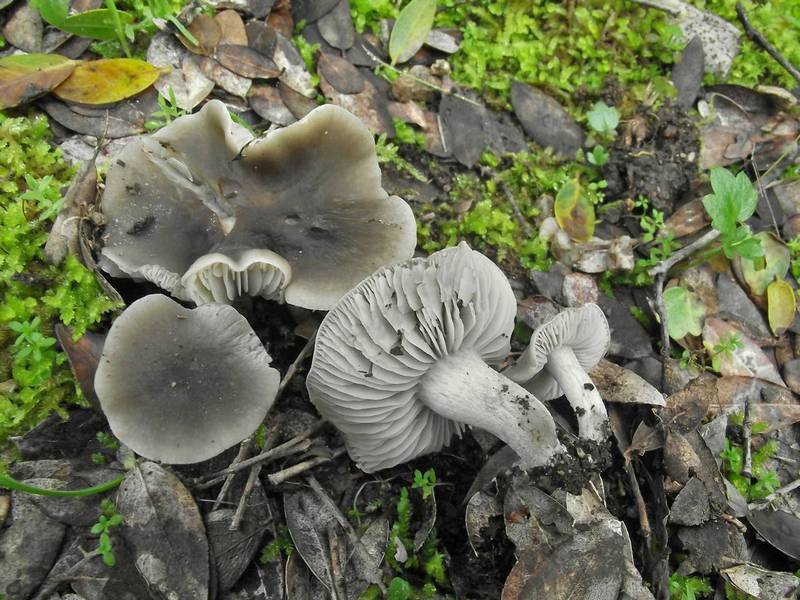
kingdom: Fungi
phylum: Basidiomycota
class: Agaricomycetes
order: Agaricales
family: Tricholomataceae
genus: Dermoloma
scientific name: Dermoloma cuneifolium
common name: Crazed cap
